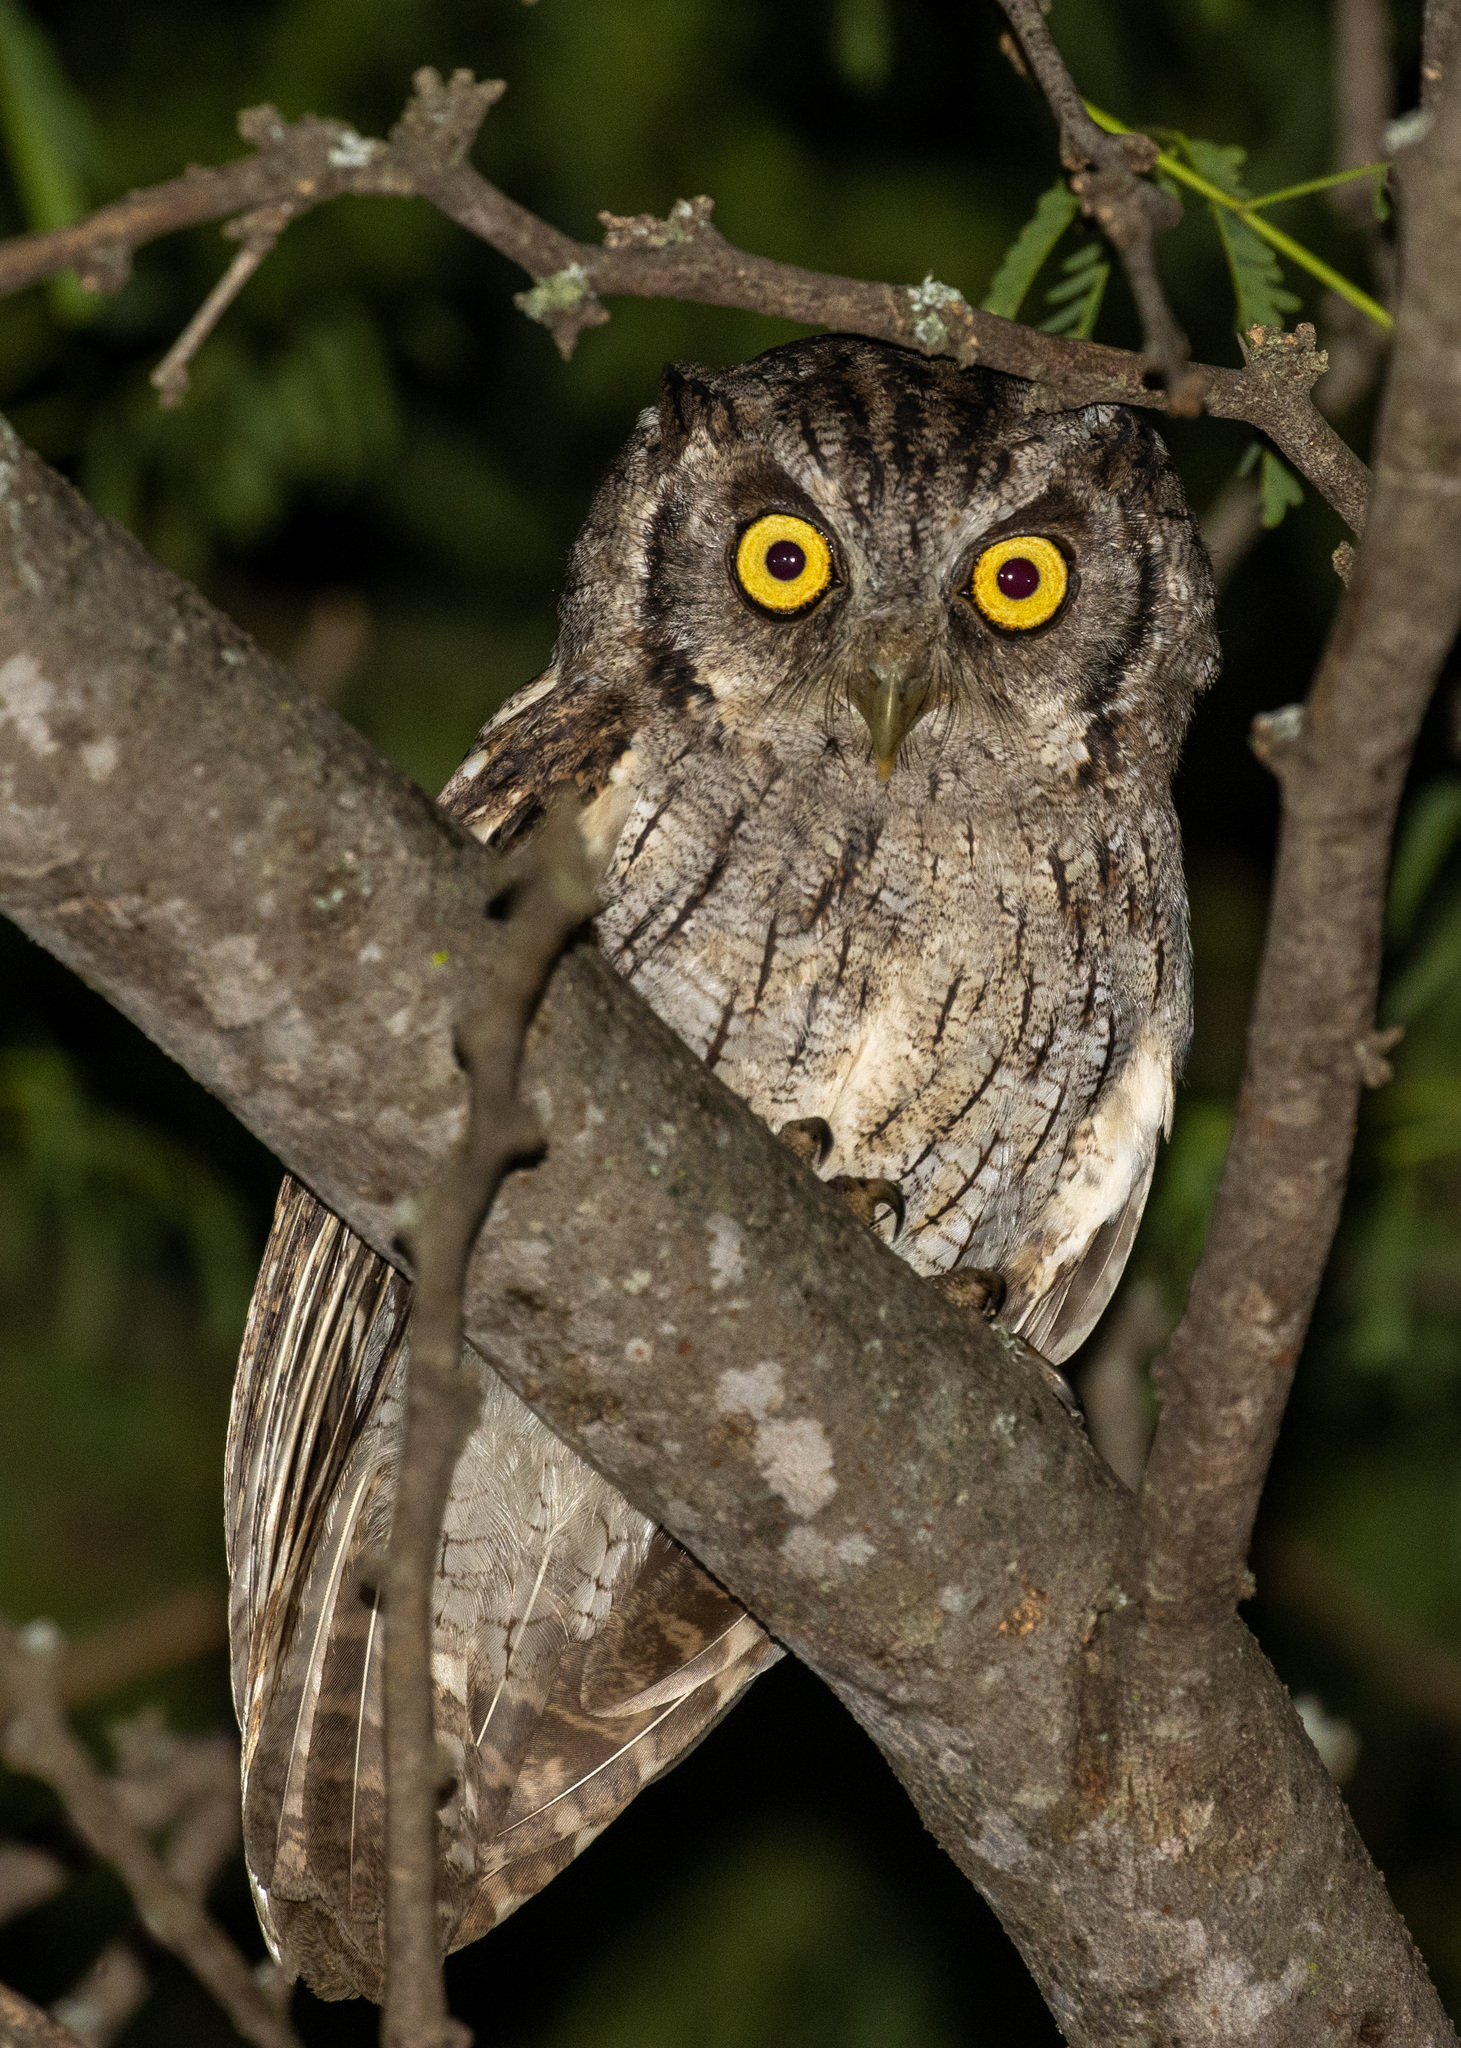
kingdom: Animalia
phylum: Chordata
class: Aves
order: Strigiformes
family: Strigidae
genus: Megascops
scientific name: Megascops choliba
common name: Tropical screech-owl
